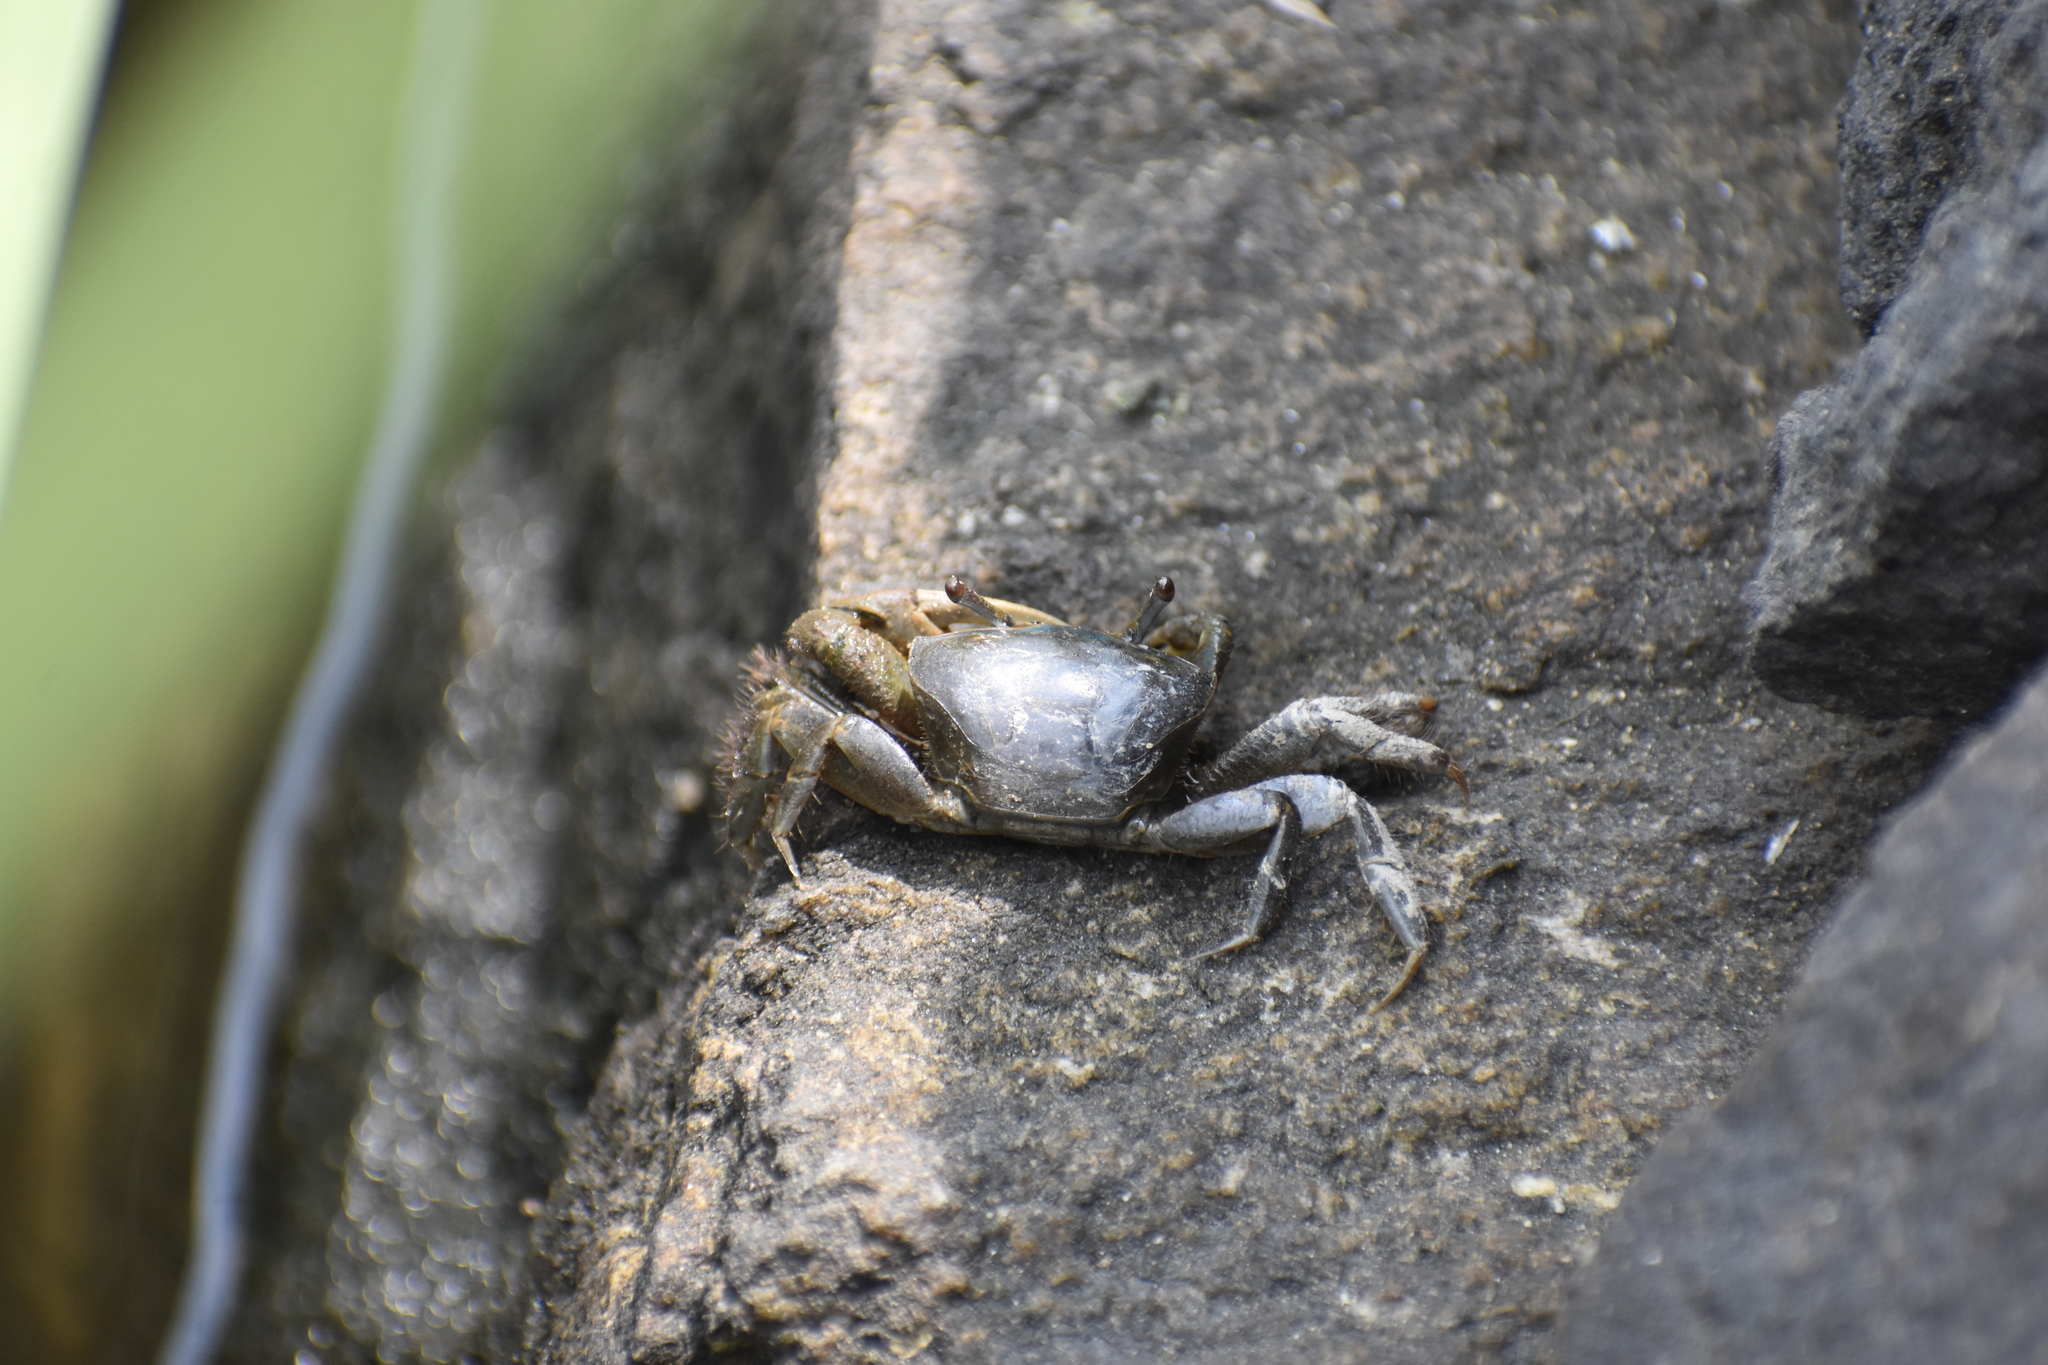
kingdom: Animalia
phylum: Arthropoda
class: Malacostraca
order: Decapoda
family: Ocypodidae
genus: Minuca
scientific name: Minuca pugnax
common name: Mud fiddler crab
